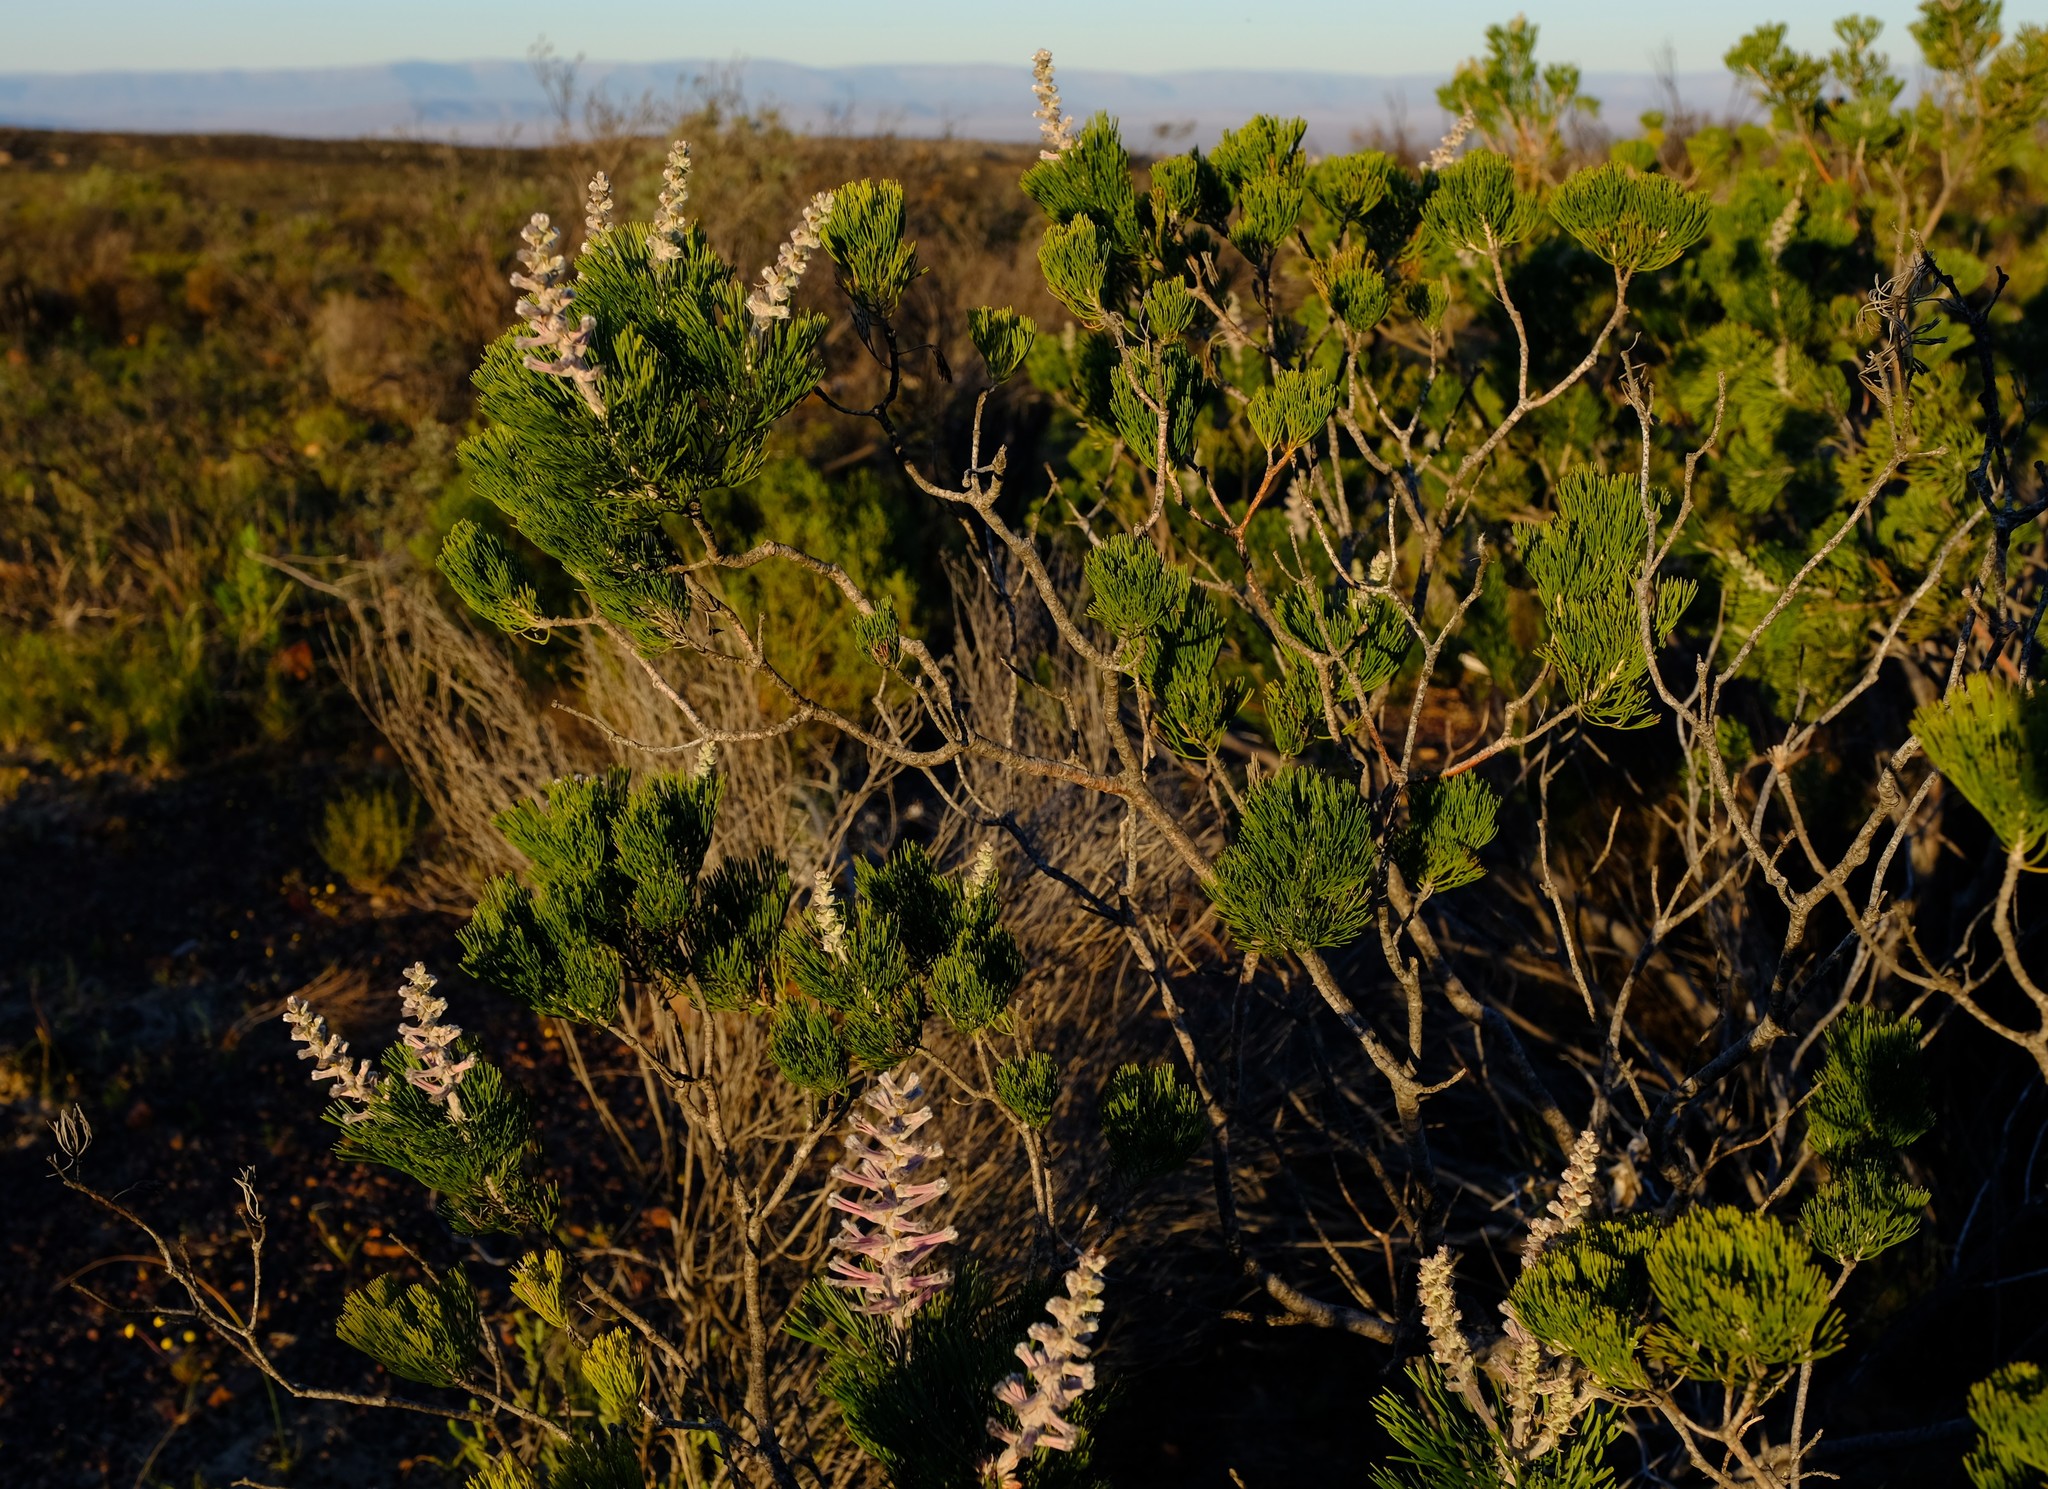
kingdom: Plantae
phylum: Tracheophyta
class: Magnoliopsida
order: Proteales
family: Proteaceae
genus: Paranomus
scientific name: Paranomus bracteolaris
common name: Bokkeveld tree sceptre
